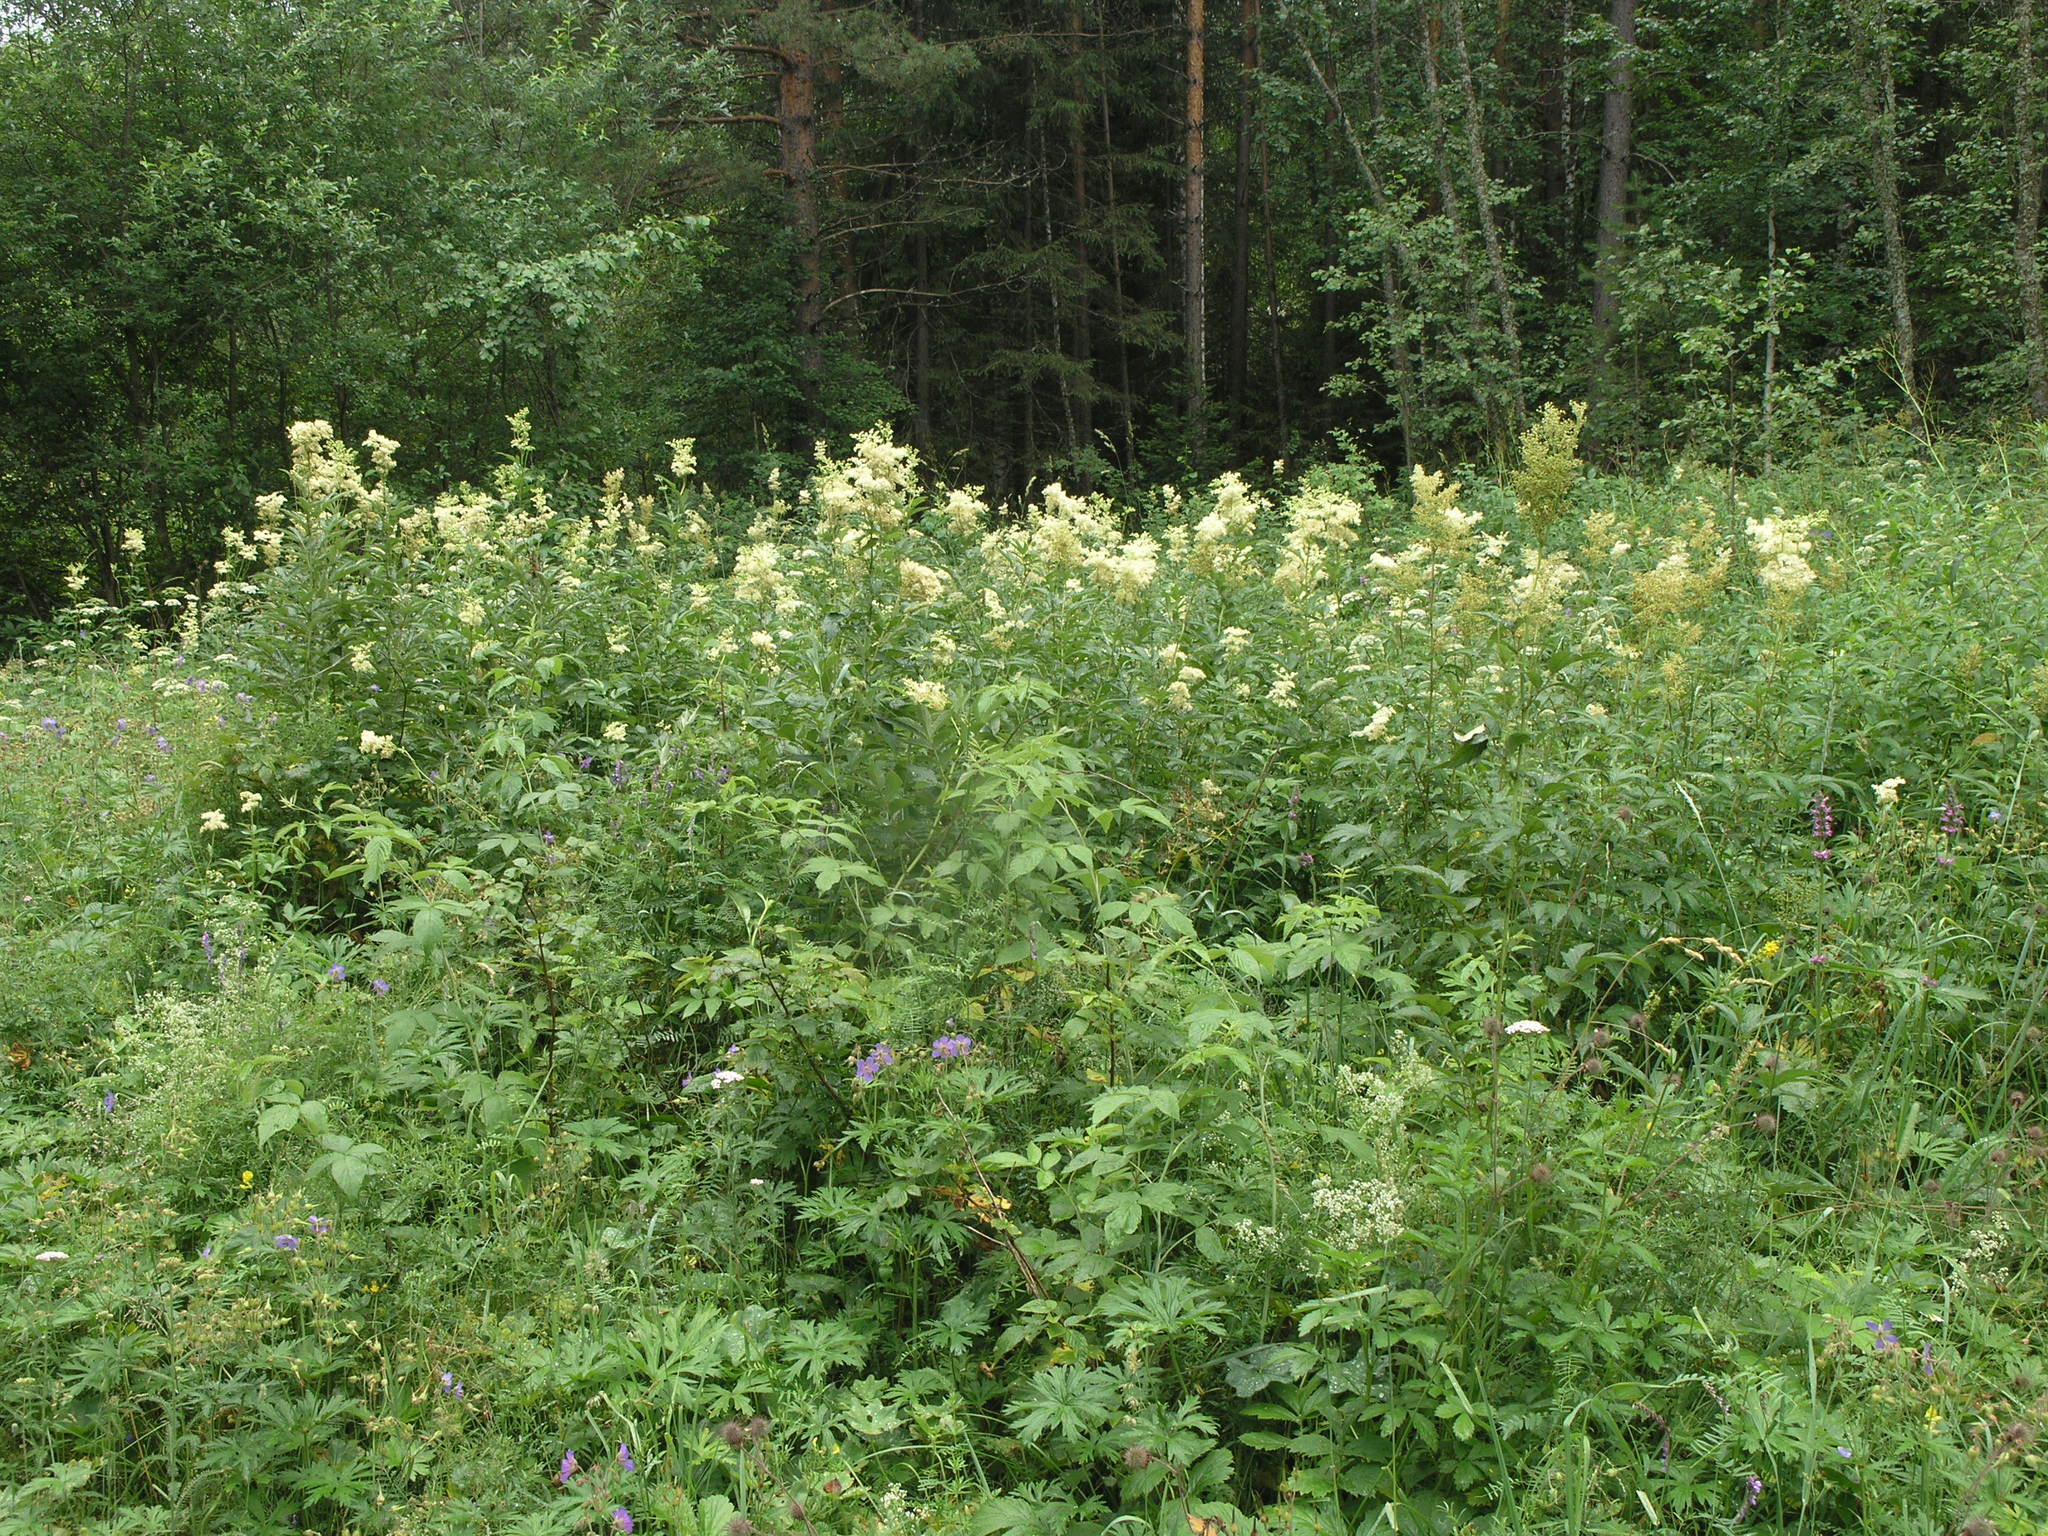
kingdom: Plantae
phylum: Tracheophyta
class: Magnoliopsida
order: Rosales
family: Rosaceae
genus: Filipendula
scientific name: Filipendula ulmaria
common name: Meadowsweet
